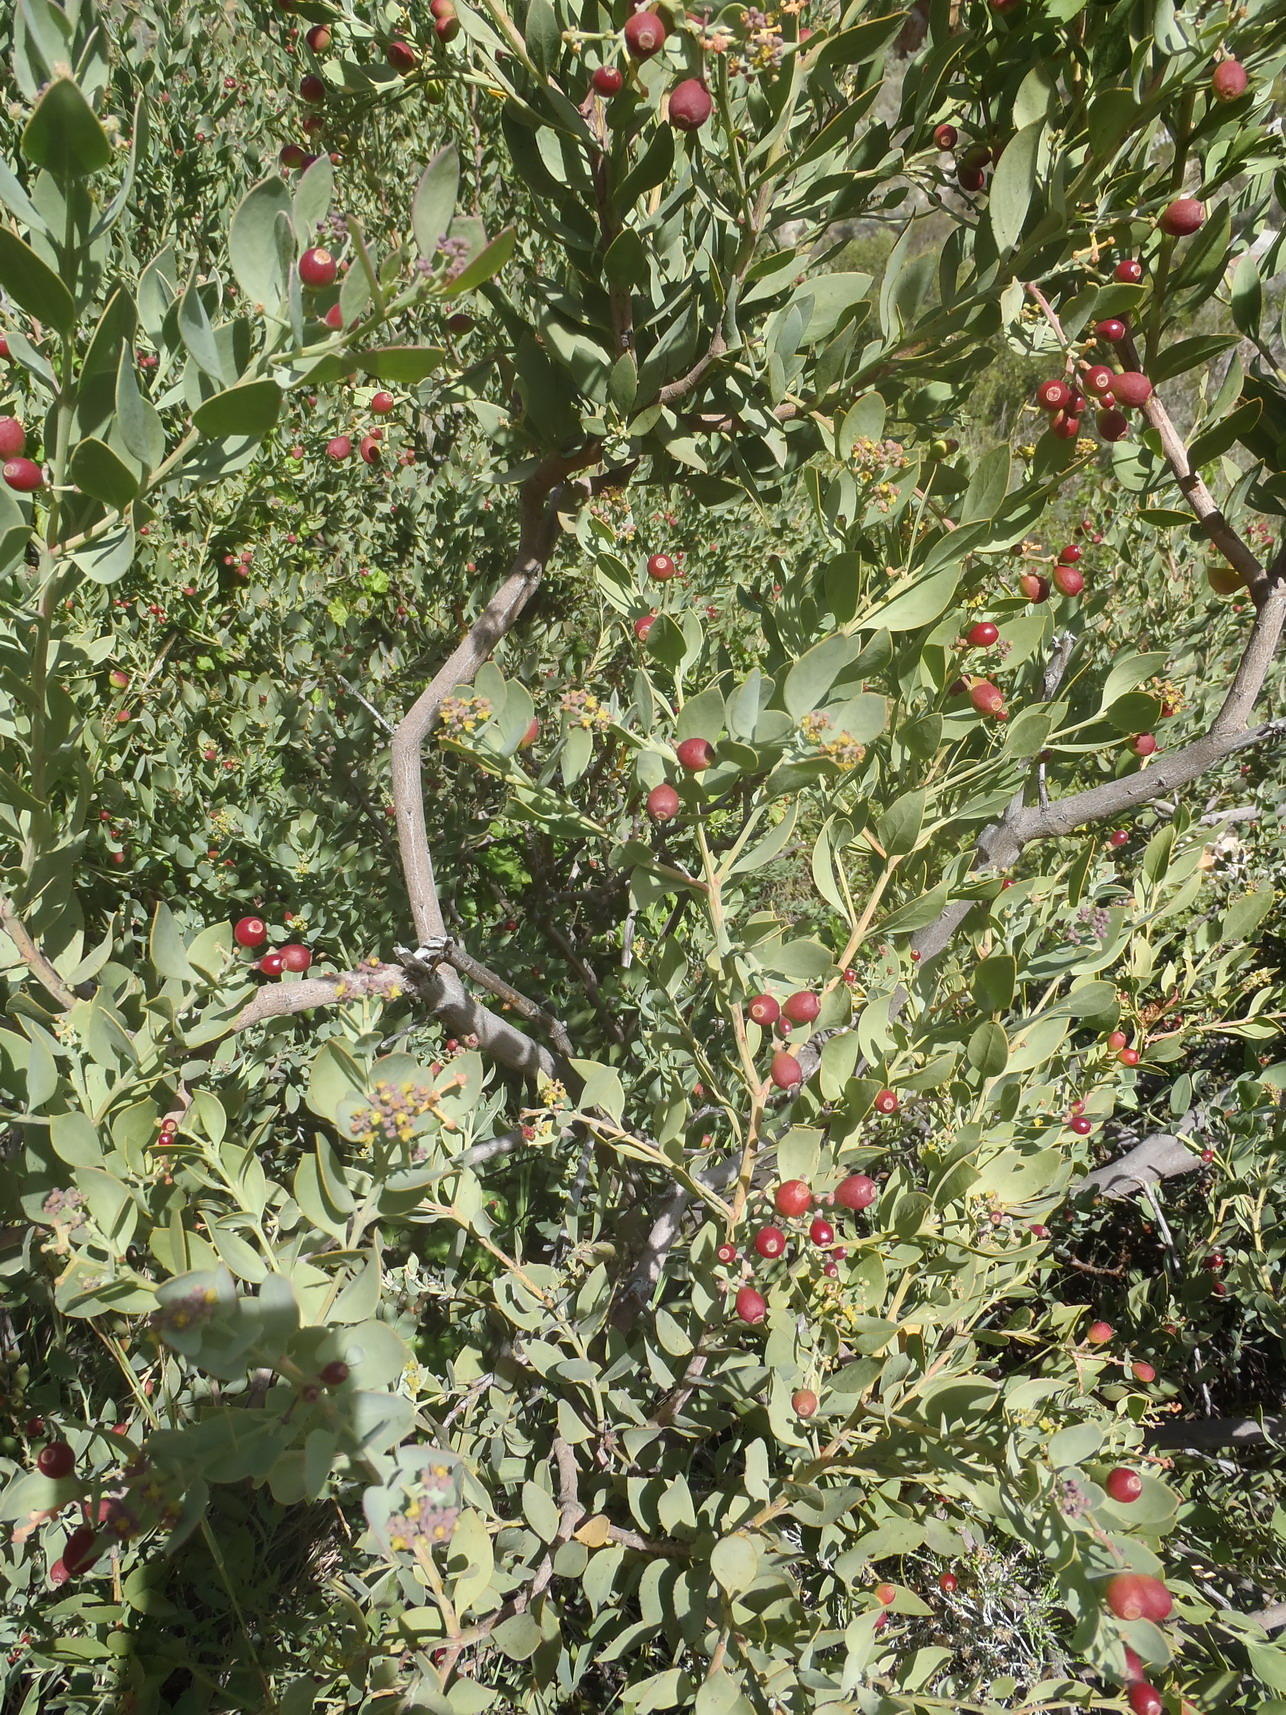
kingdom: Plantae
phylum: Tracheophyta
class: Magnoliopsida
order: Santalales
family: Santalaceae
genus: Osyris
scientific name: Osyris compressa
